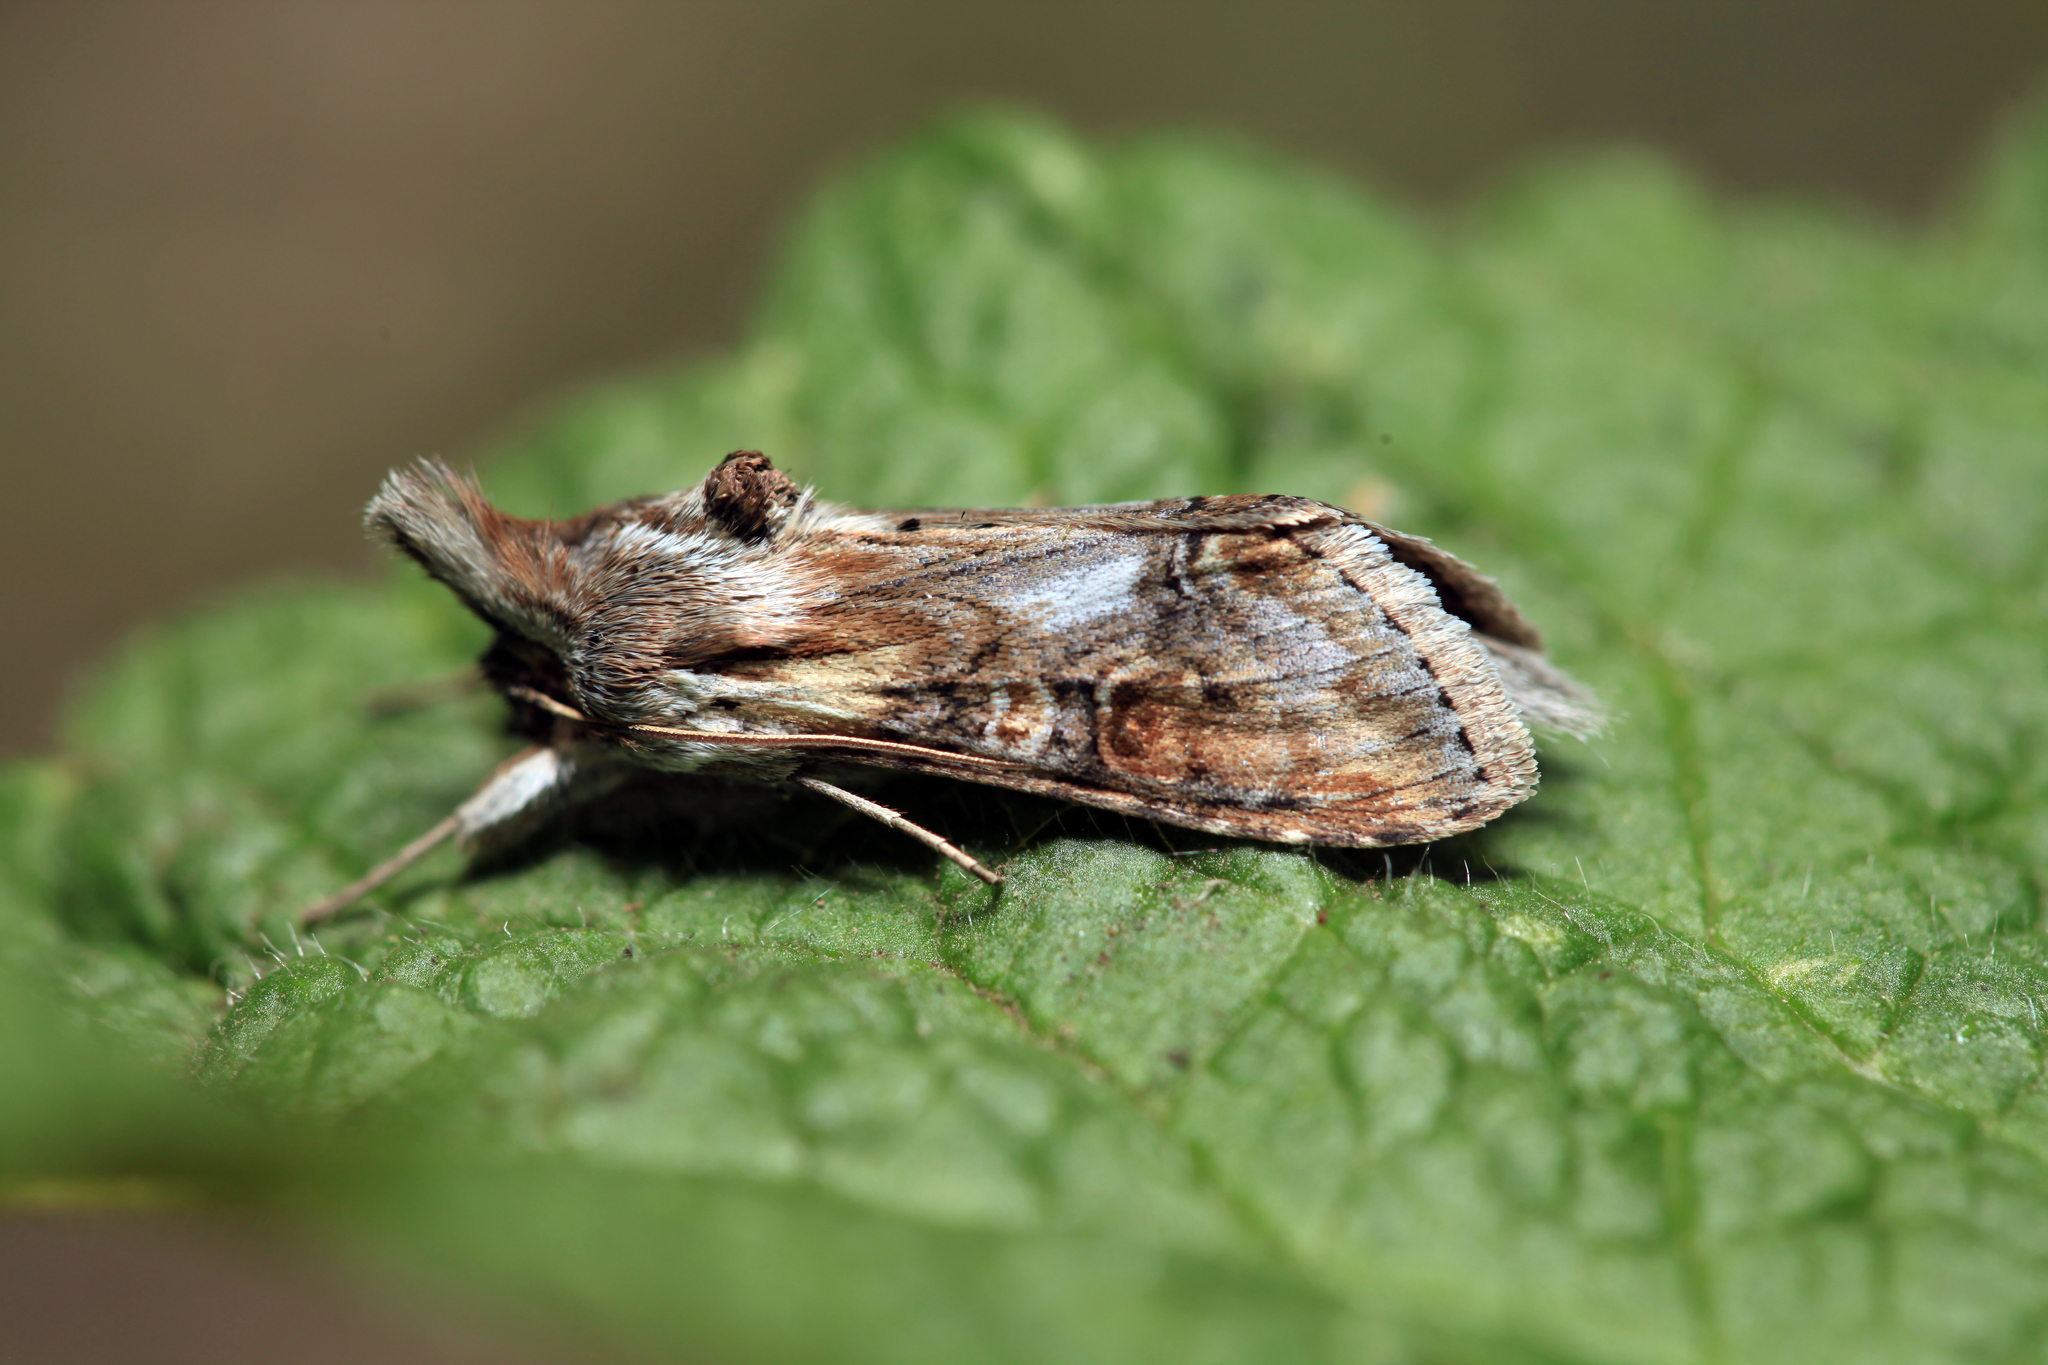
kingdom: Animalia
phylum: Arthropoda
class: Insecta
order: Lepidoptera
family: Noctuidae
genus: Cucullia
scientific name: Cucullia propinqua
